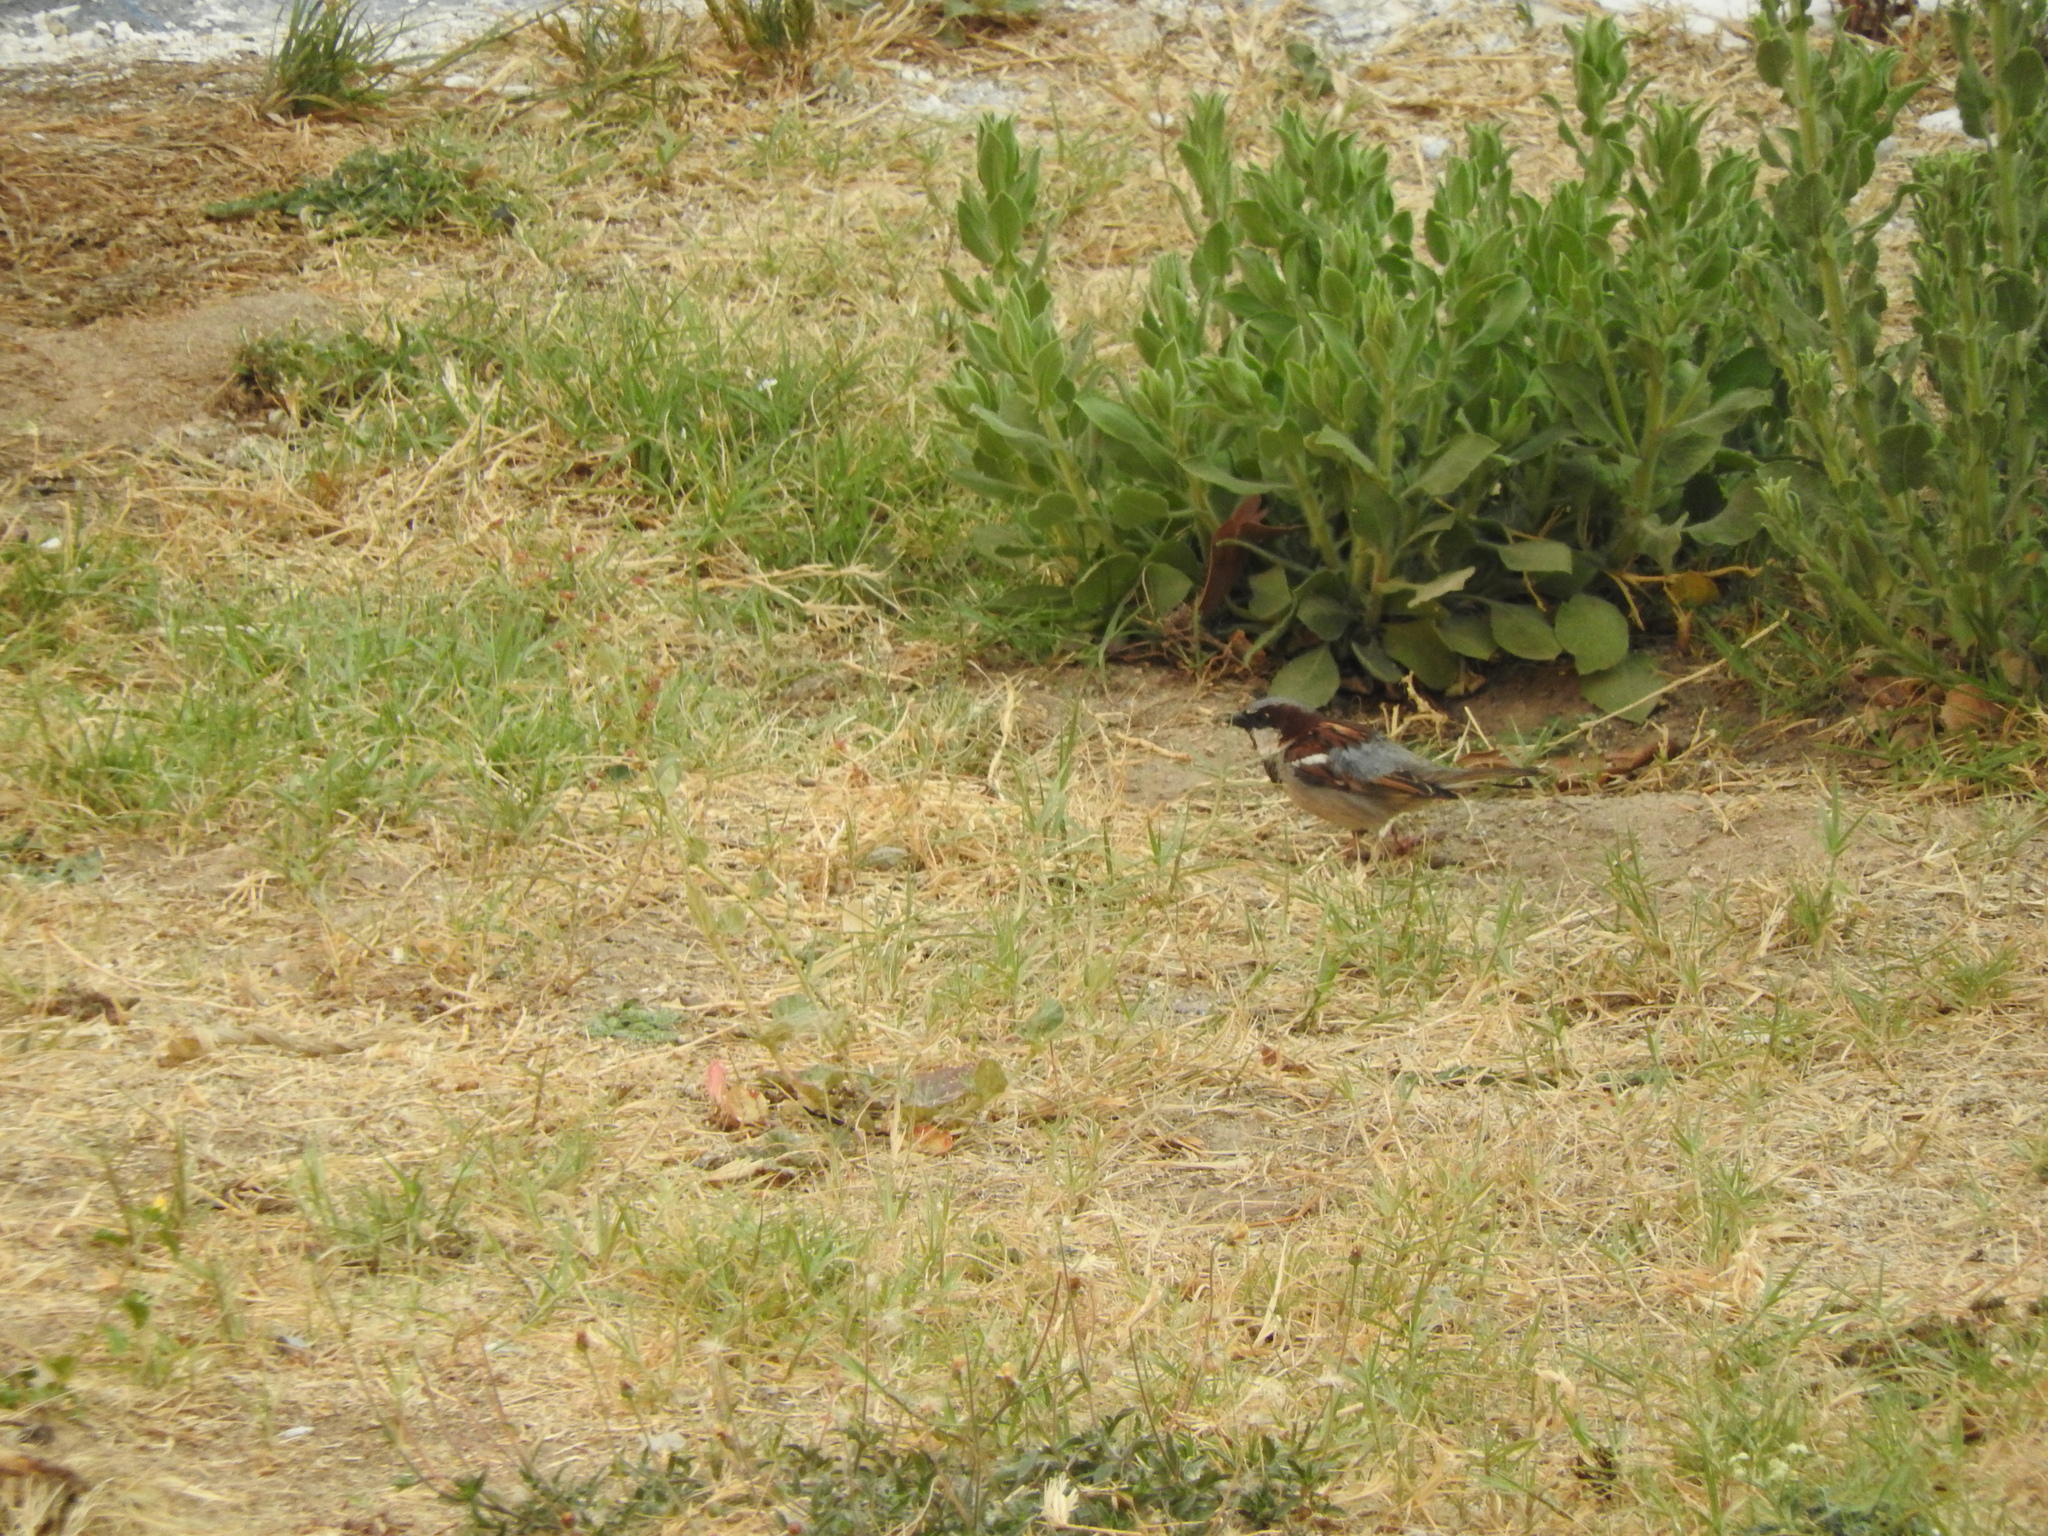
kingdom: Animalia
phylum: Chordata
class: Aves
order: Passeriformes
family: Passeridae
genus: Passer
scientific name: Passer domesticus
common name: House sparrow
